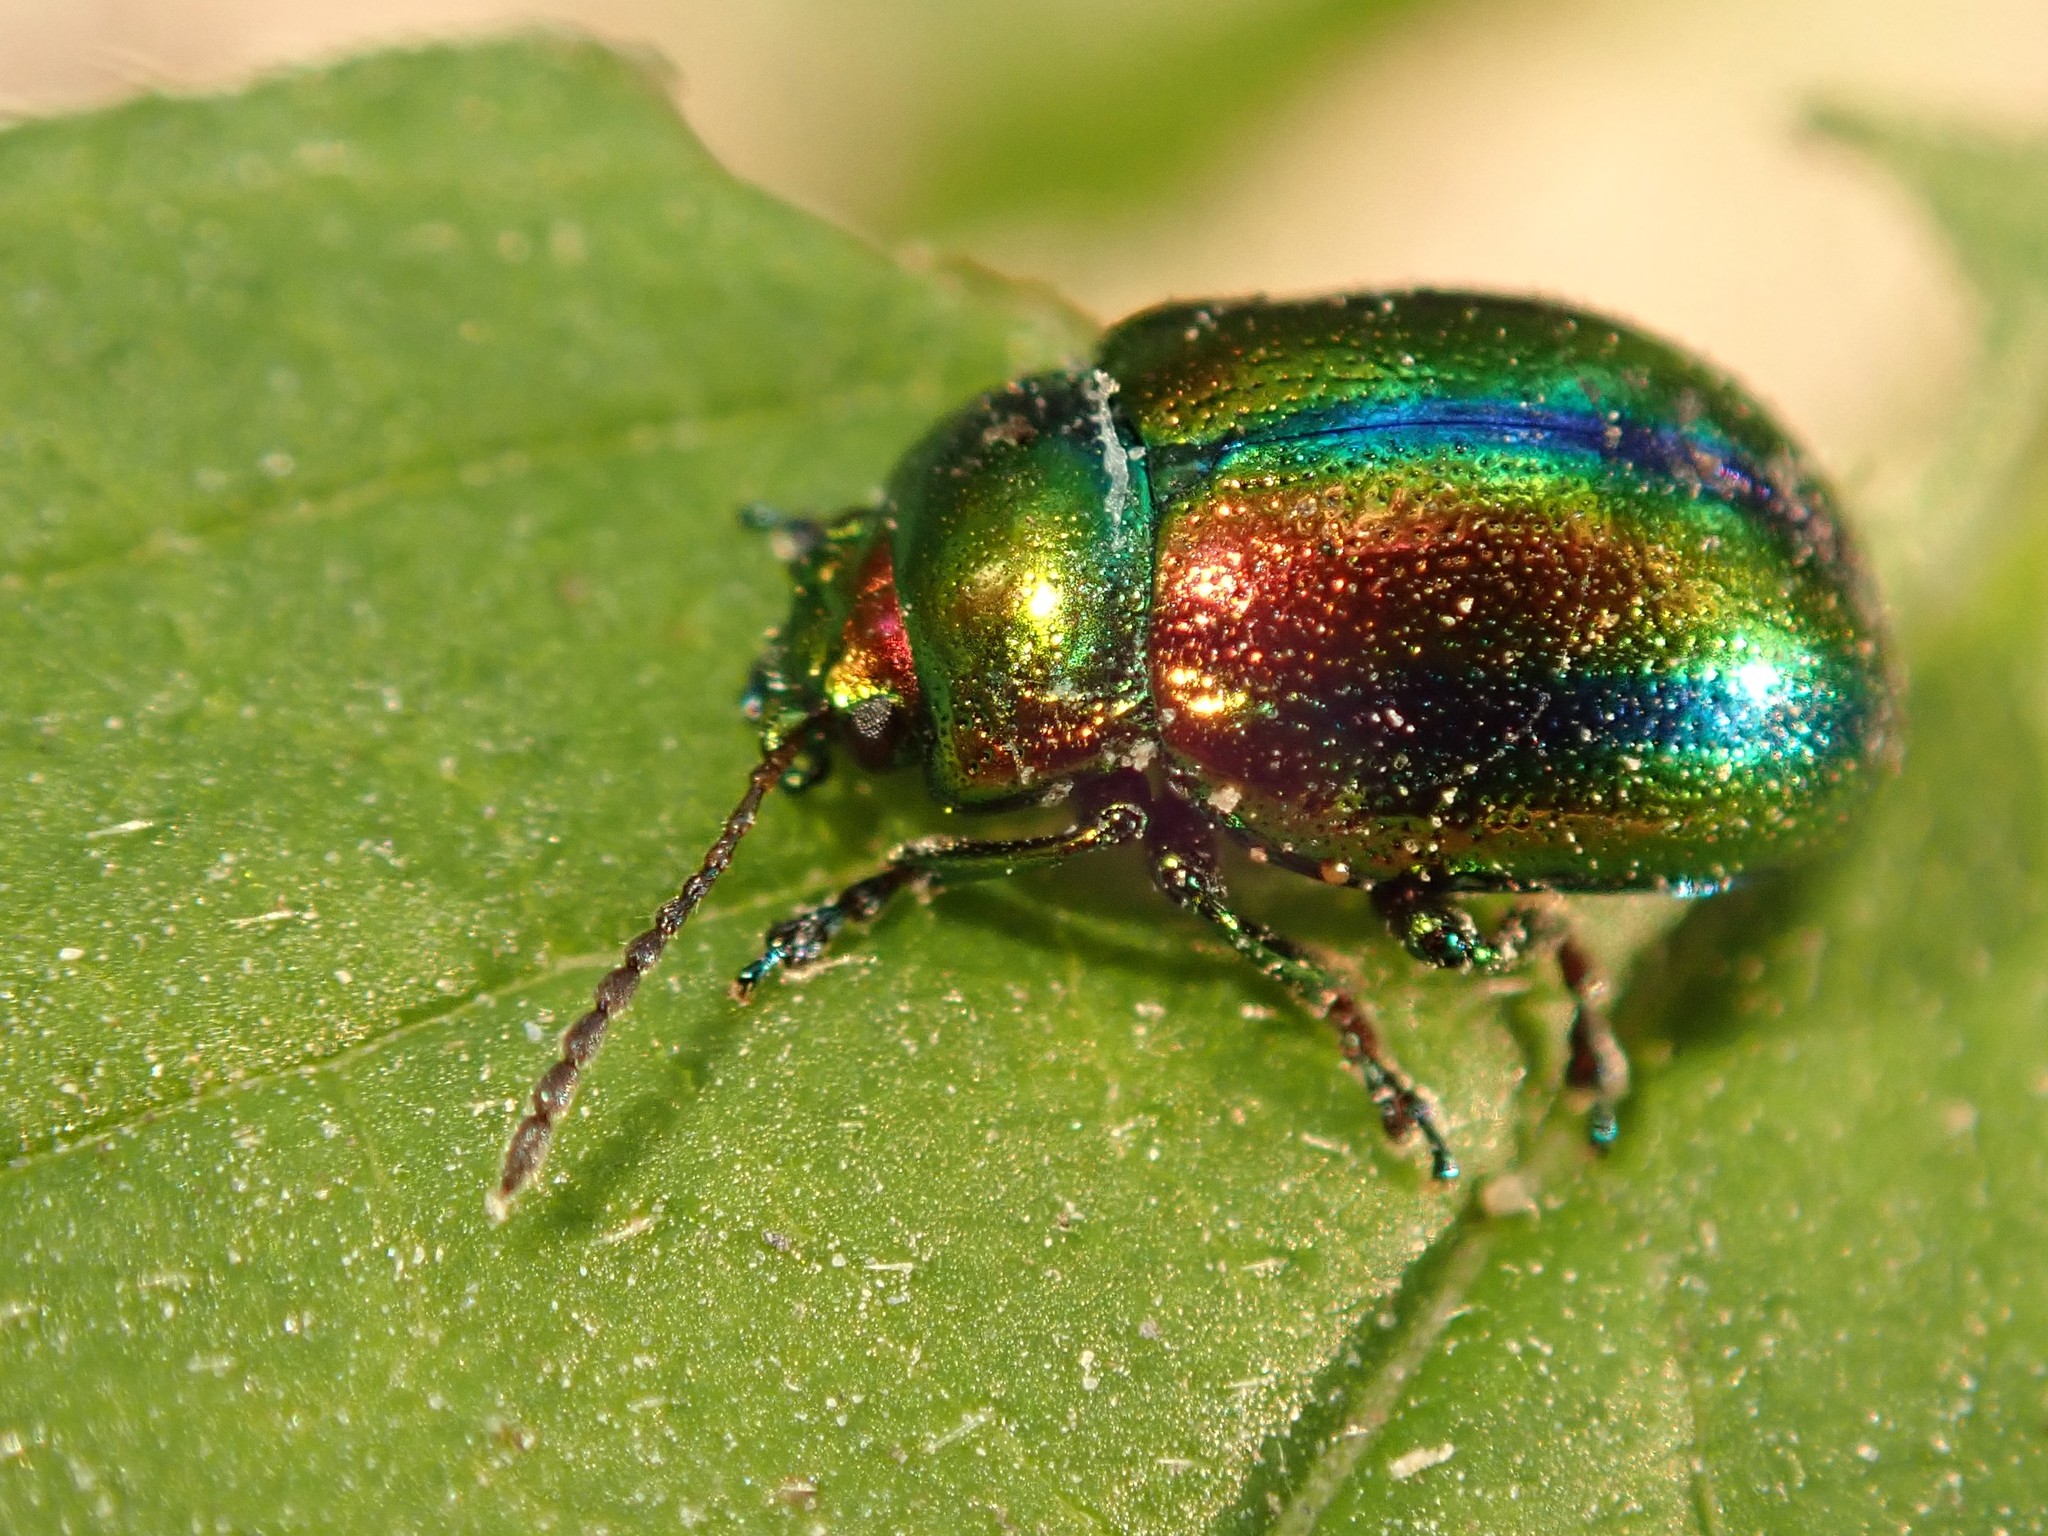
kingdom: Animalia
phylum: Arthropoda
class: Insecta
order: Coleoptera
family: Chrysomelidae
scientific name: Chrysomelidae
